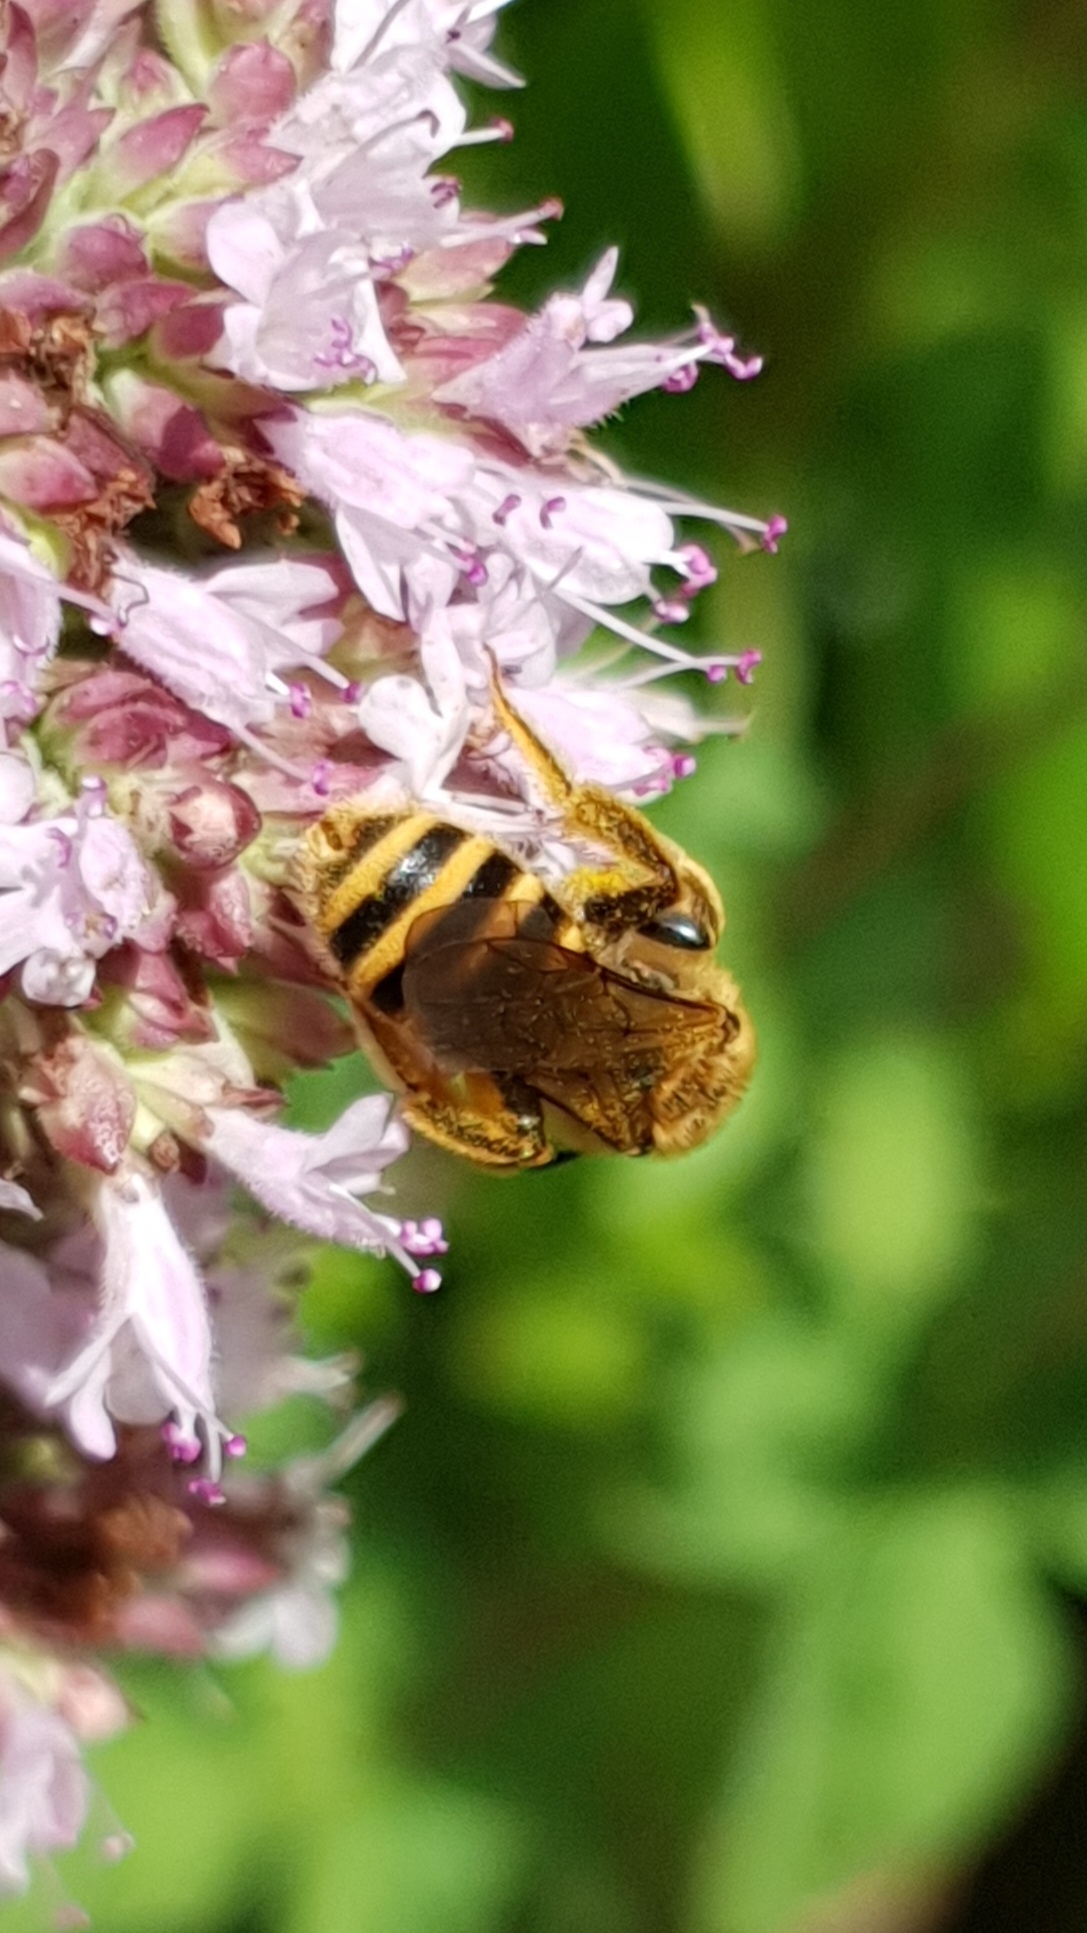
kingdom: Animalia
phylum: Arthropoda
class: Insecta
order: Hymenoptera
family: Halictidae
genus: Halictus
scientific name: Halictus scabiosae
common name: Great banded furrow bee
